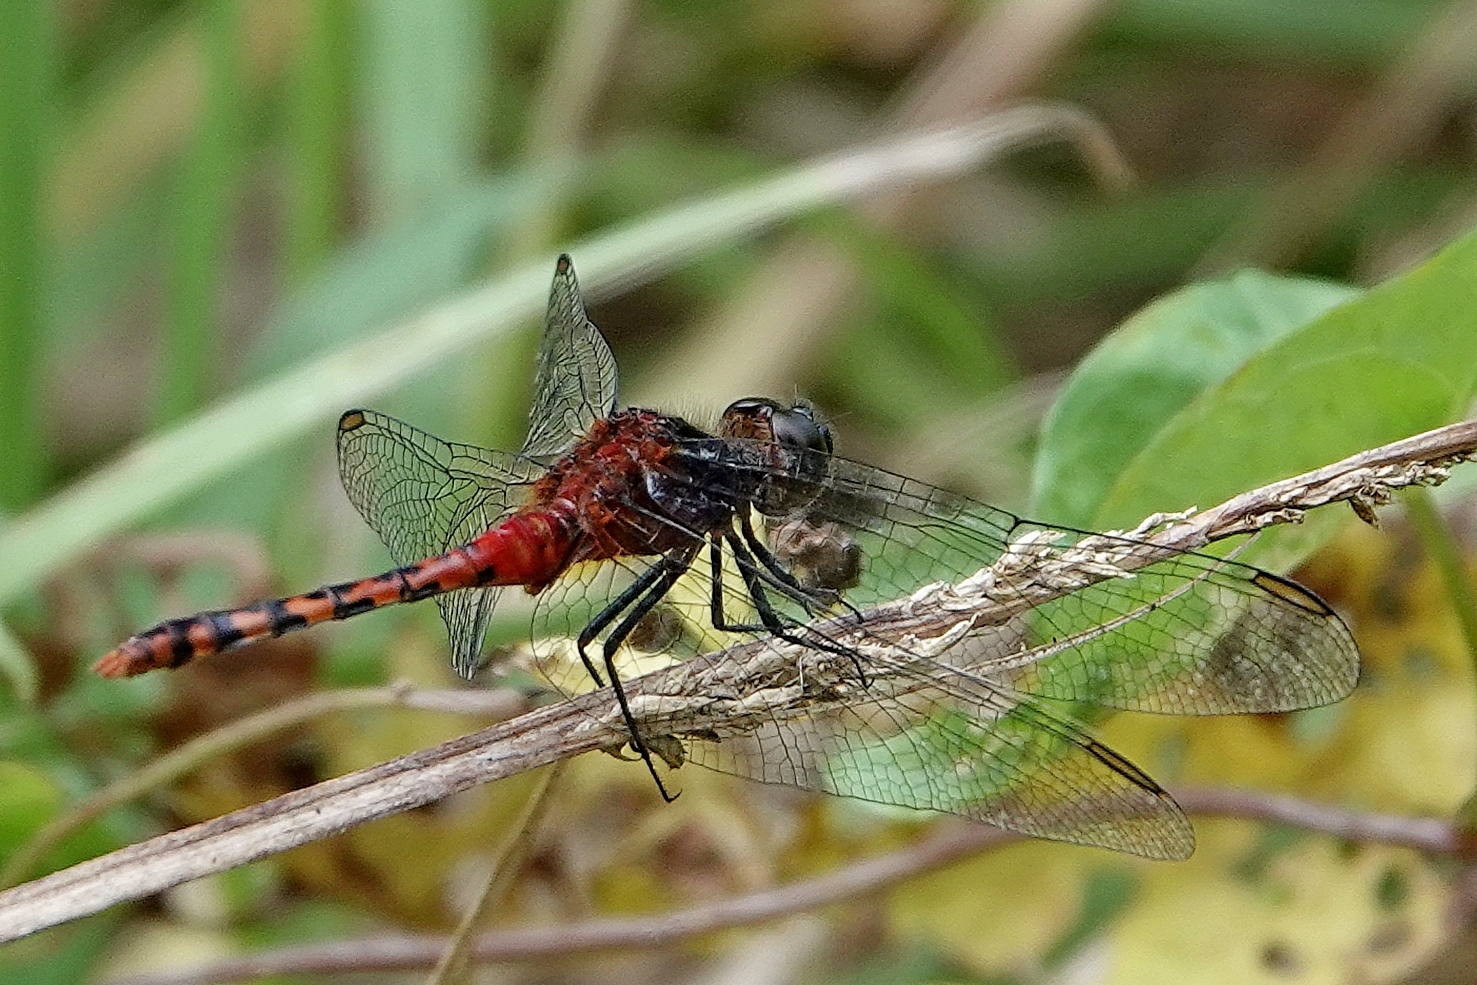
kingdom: Animalia
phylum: Arthropoda
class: Insecta
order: Odonata
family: Libellulidae
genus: Diplacodes
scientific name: Diplacodes melanopsis
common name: Black-faced percher
